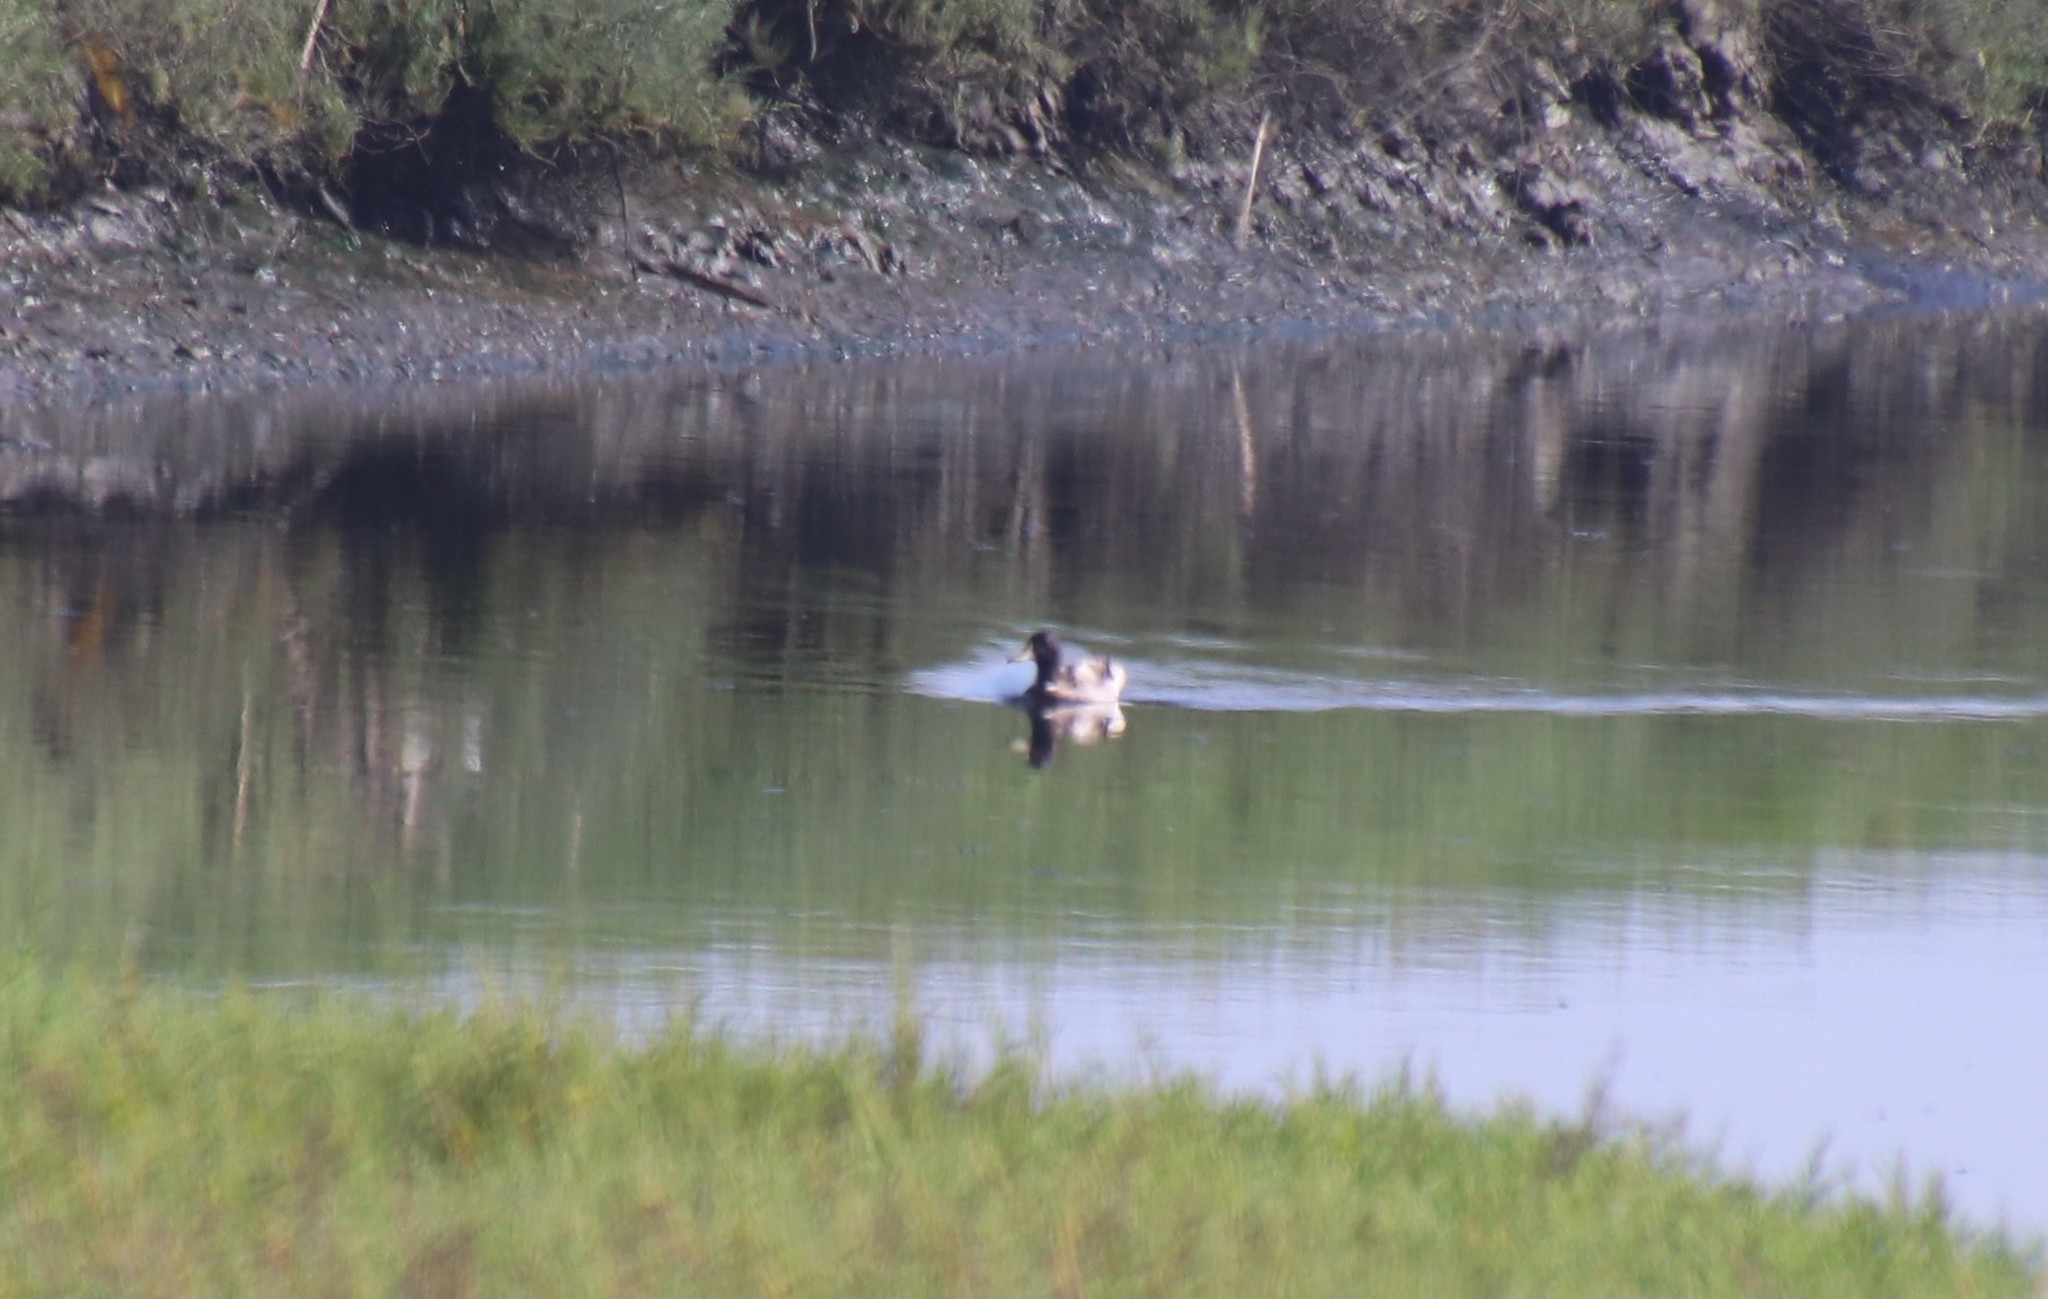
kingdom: Animalia
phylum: Chordata
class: Aves
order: Anseriformes
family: Anatidae
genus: Anas
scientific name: Anas platyrhynchos
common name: Mallard
